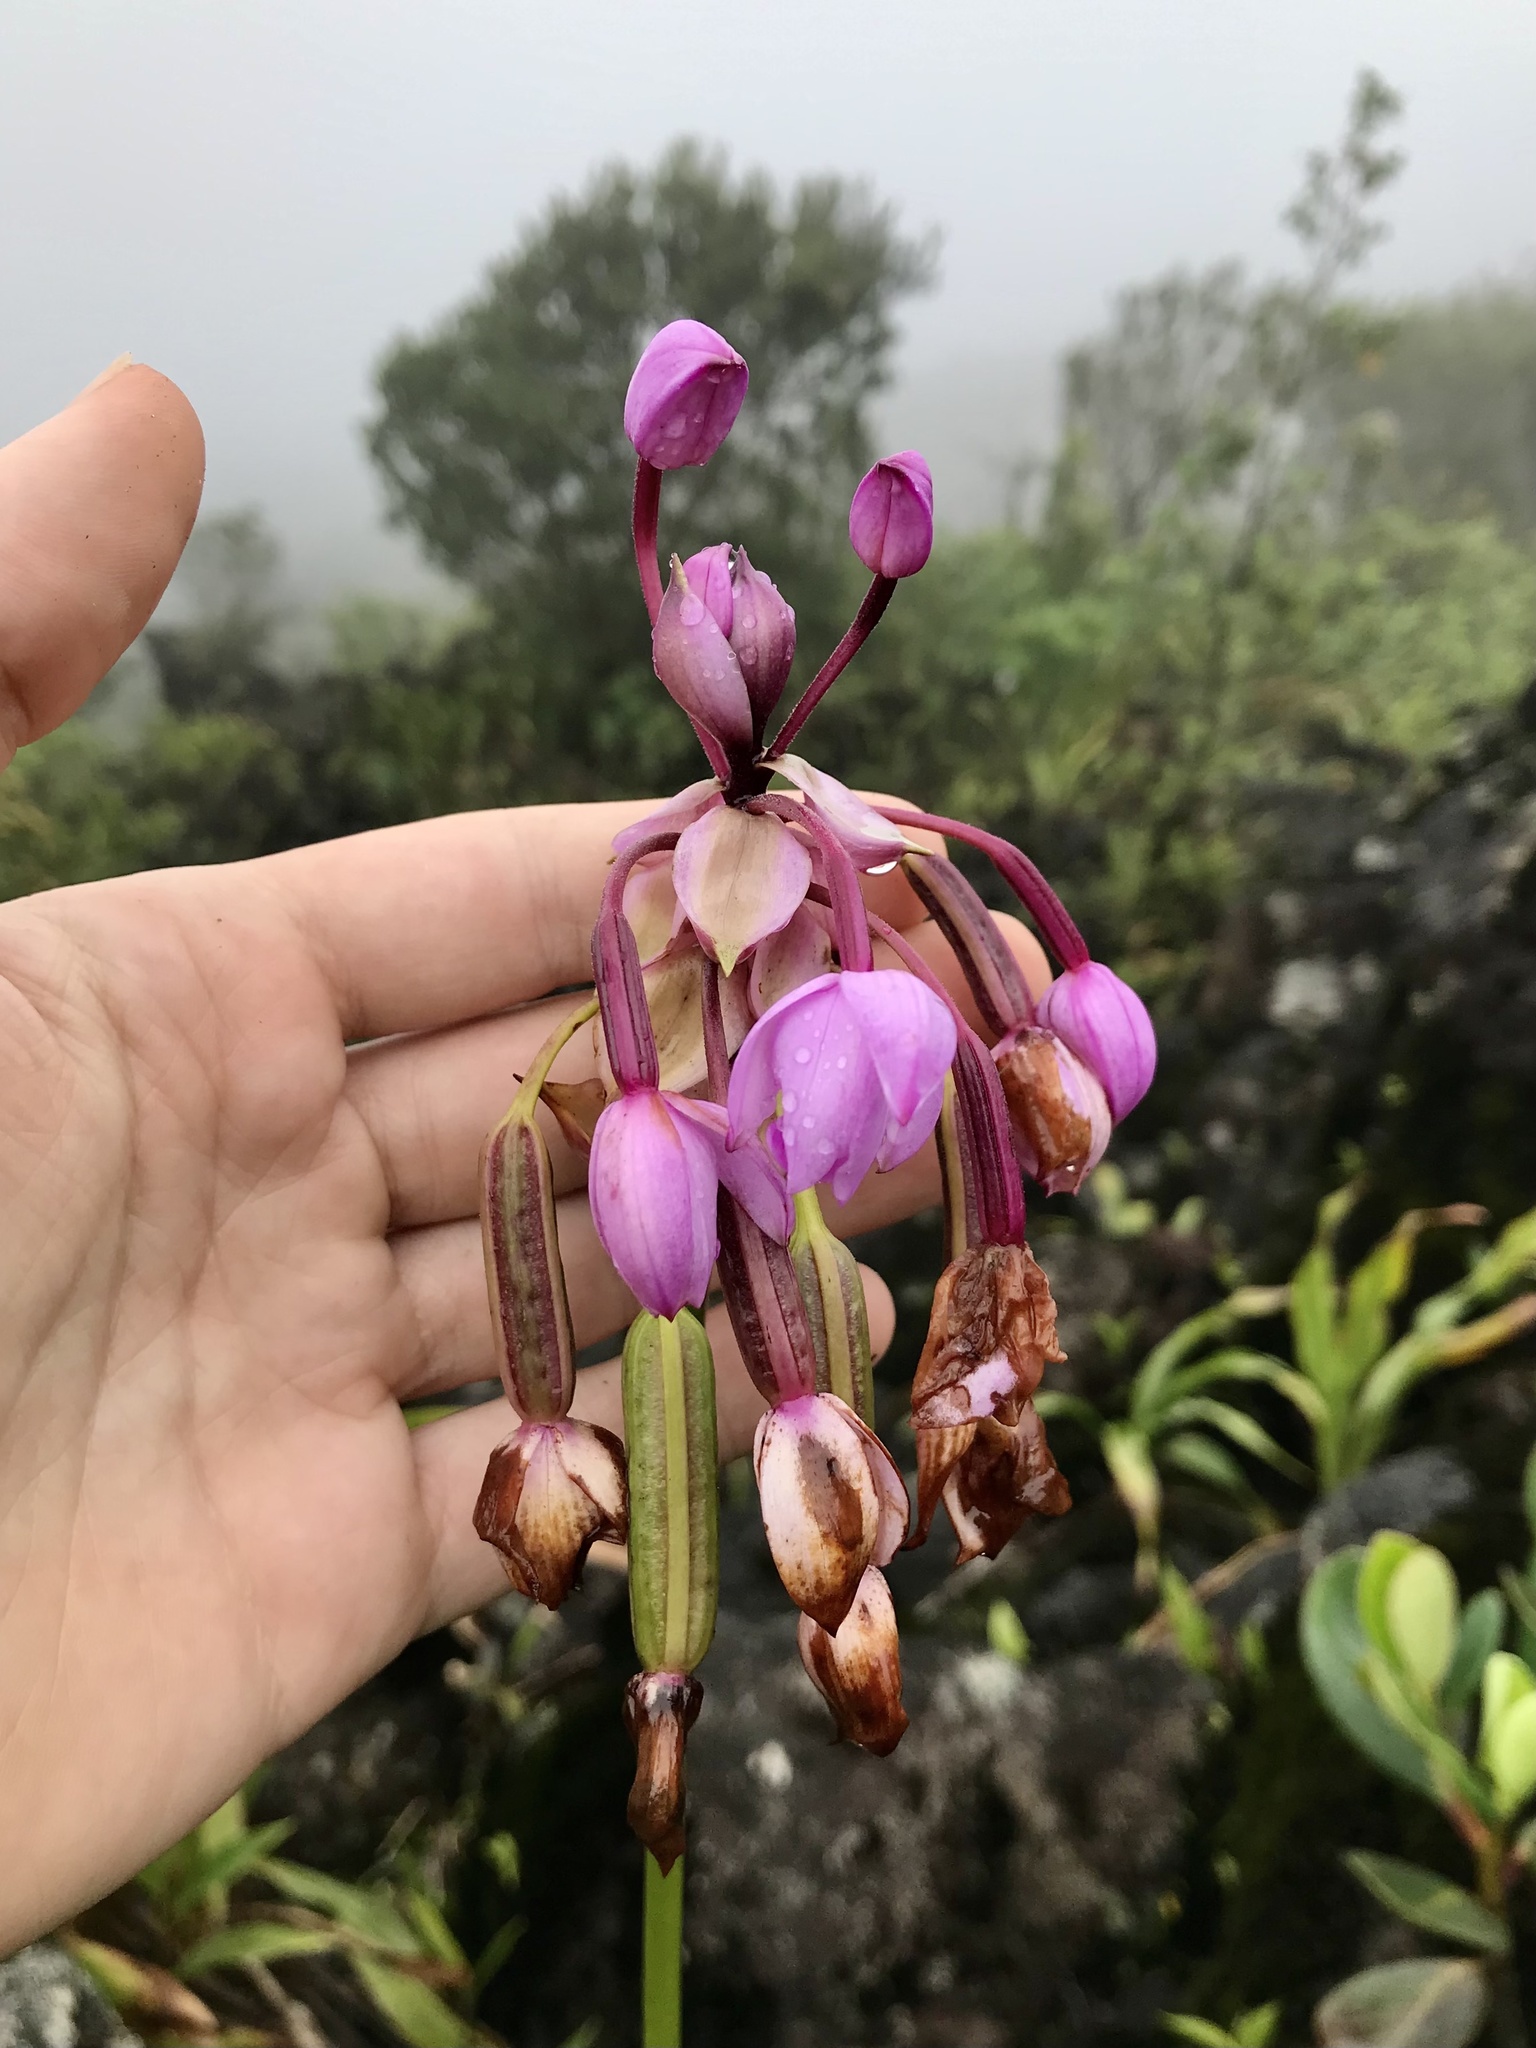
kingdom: Plantae
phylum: Tracheophyta
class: Liliopsida
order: Asparagales
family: Orchidaceae
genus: Spathoglottis
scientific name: Spathoglottis plicata
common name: Philippine ground orchid
